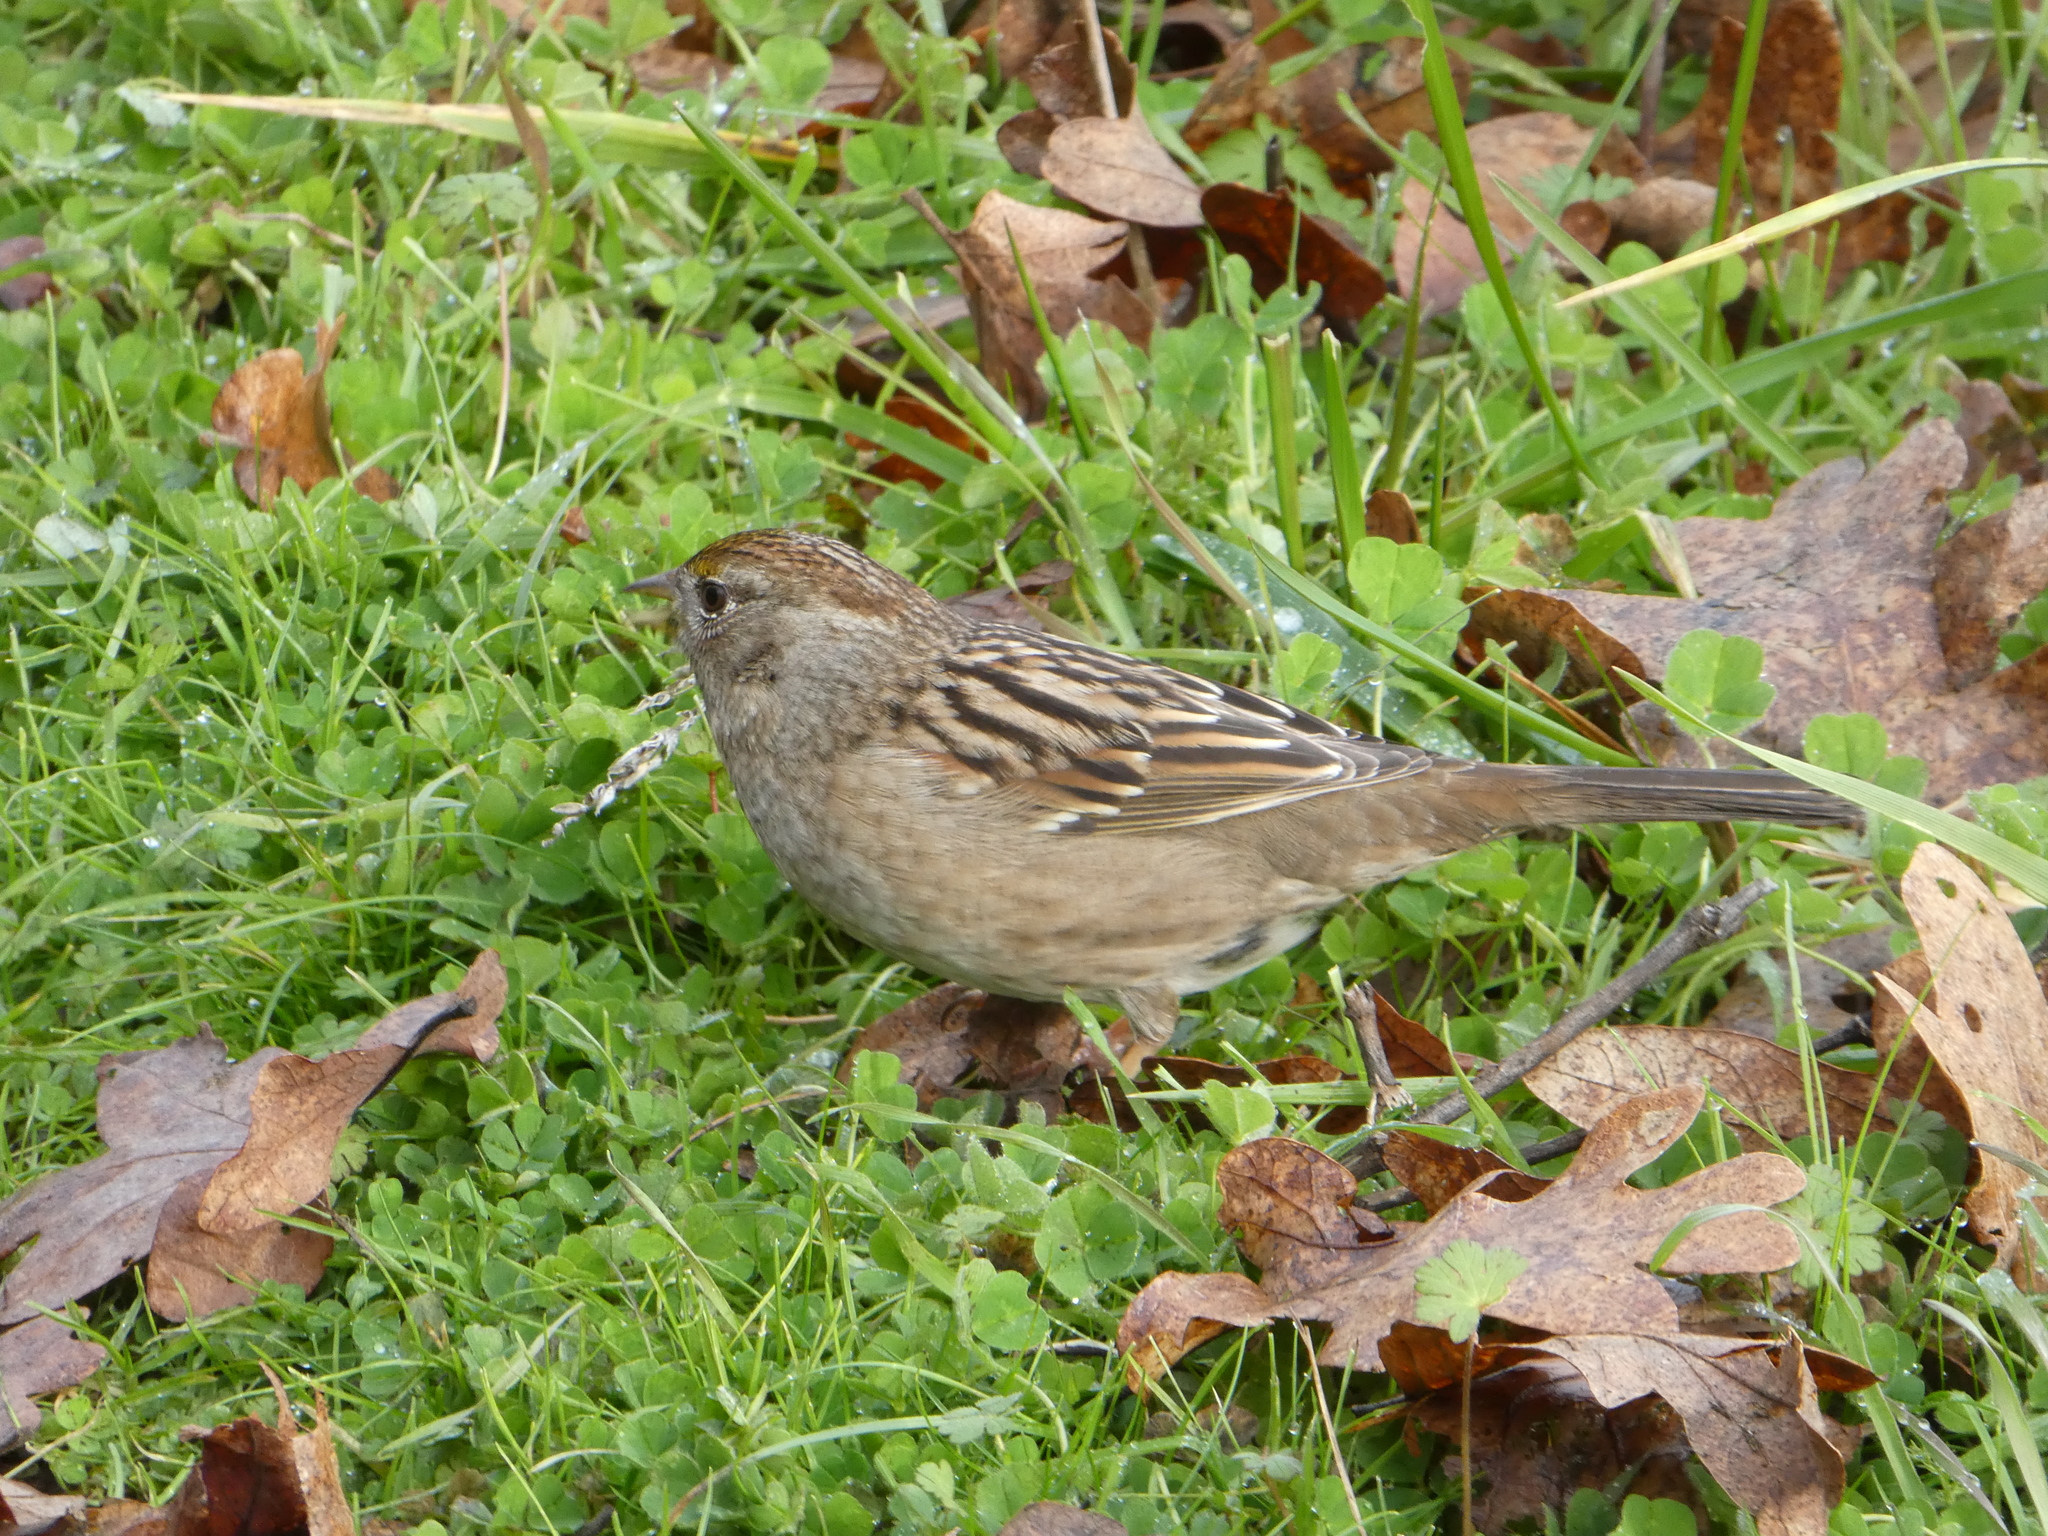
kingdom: Animalia
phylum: Chordata
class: Aves
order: Passeriformes
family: Passerellidae
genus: Zonotrichia
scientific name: Zonotrichia atricapilla
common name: Golden-crowned sparrow
